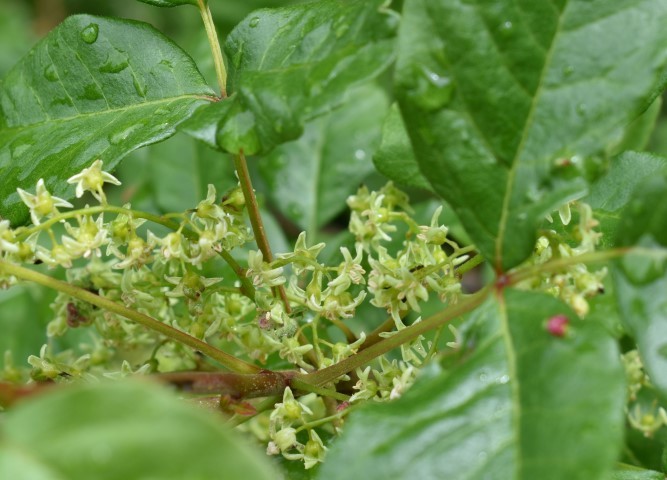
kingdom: Plantae
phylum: Tracheophyta
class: Magnoliopsida
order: Sapindales
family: Anacardiaceae
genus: Toxicodendron
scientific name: Toxicodendron diversilobum
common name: Pacific poison-oak
